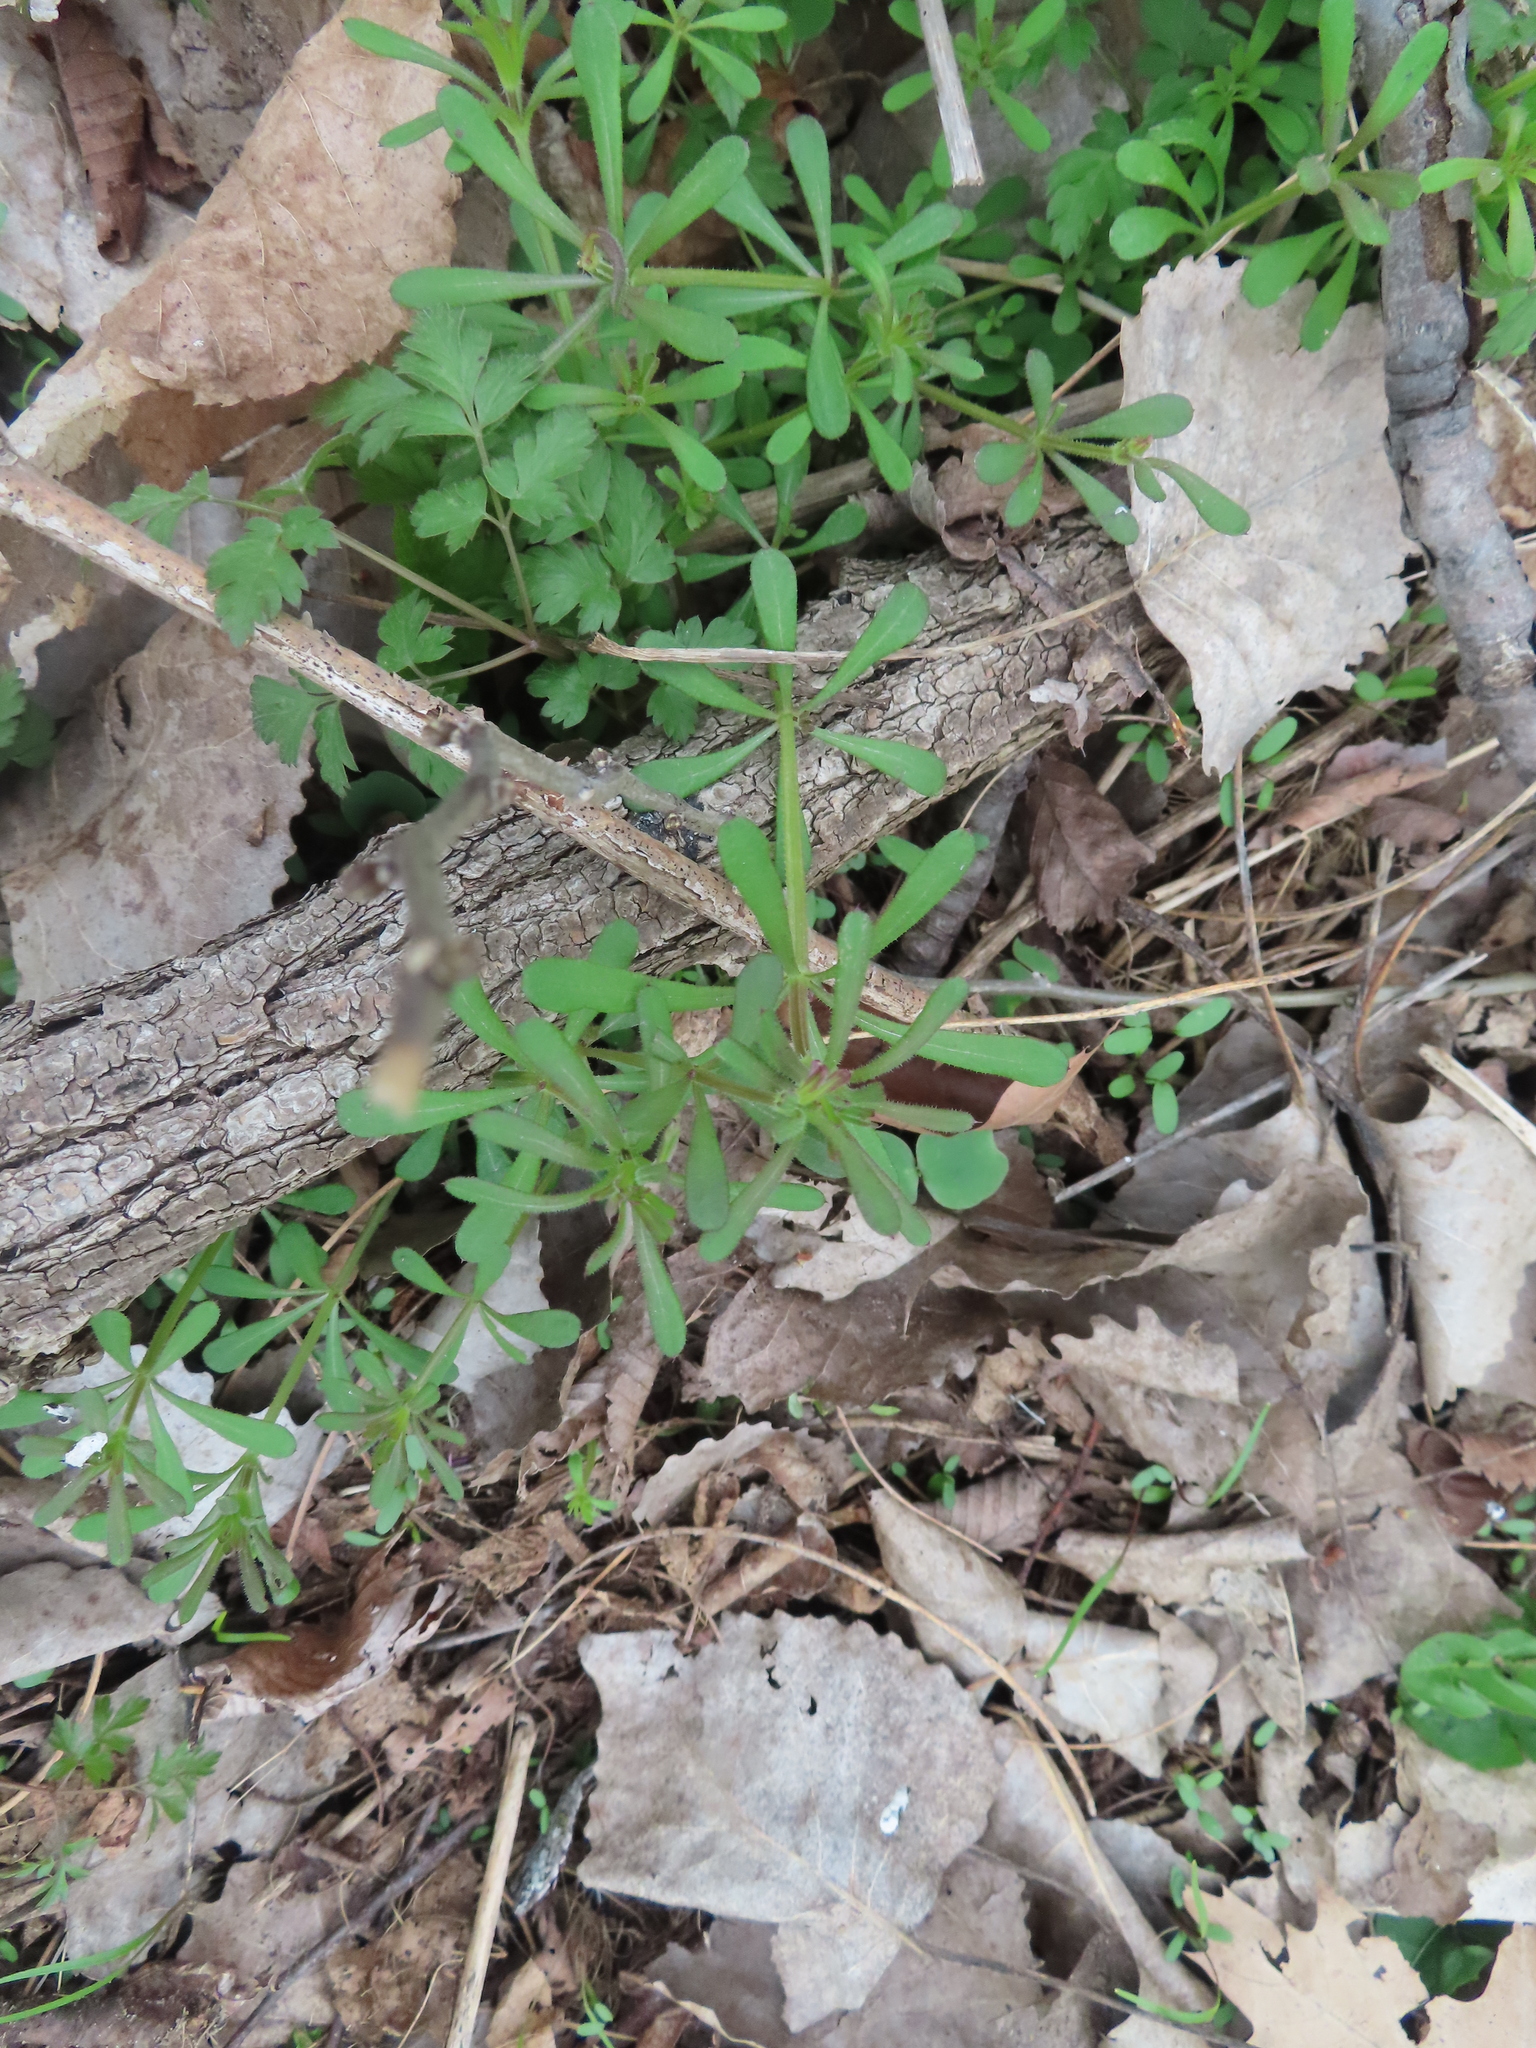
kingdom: Plantae
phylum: Tracheophyta
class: Magnoliopsida
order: Gentianales
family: Rubiaceae
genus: Galium
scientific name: Galium aparine
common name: Cleavers
